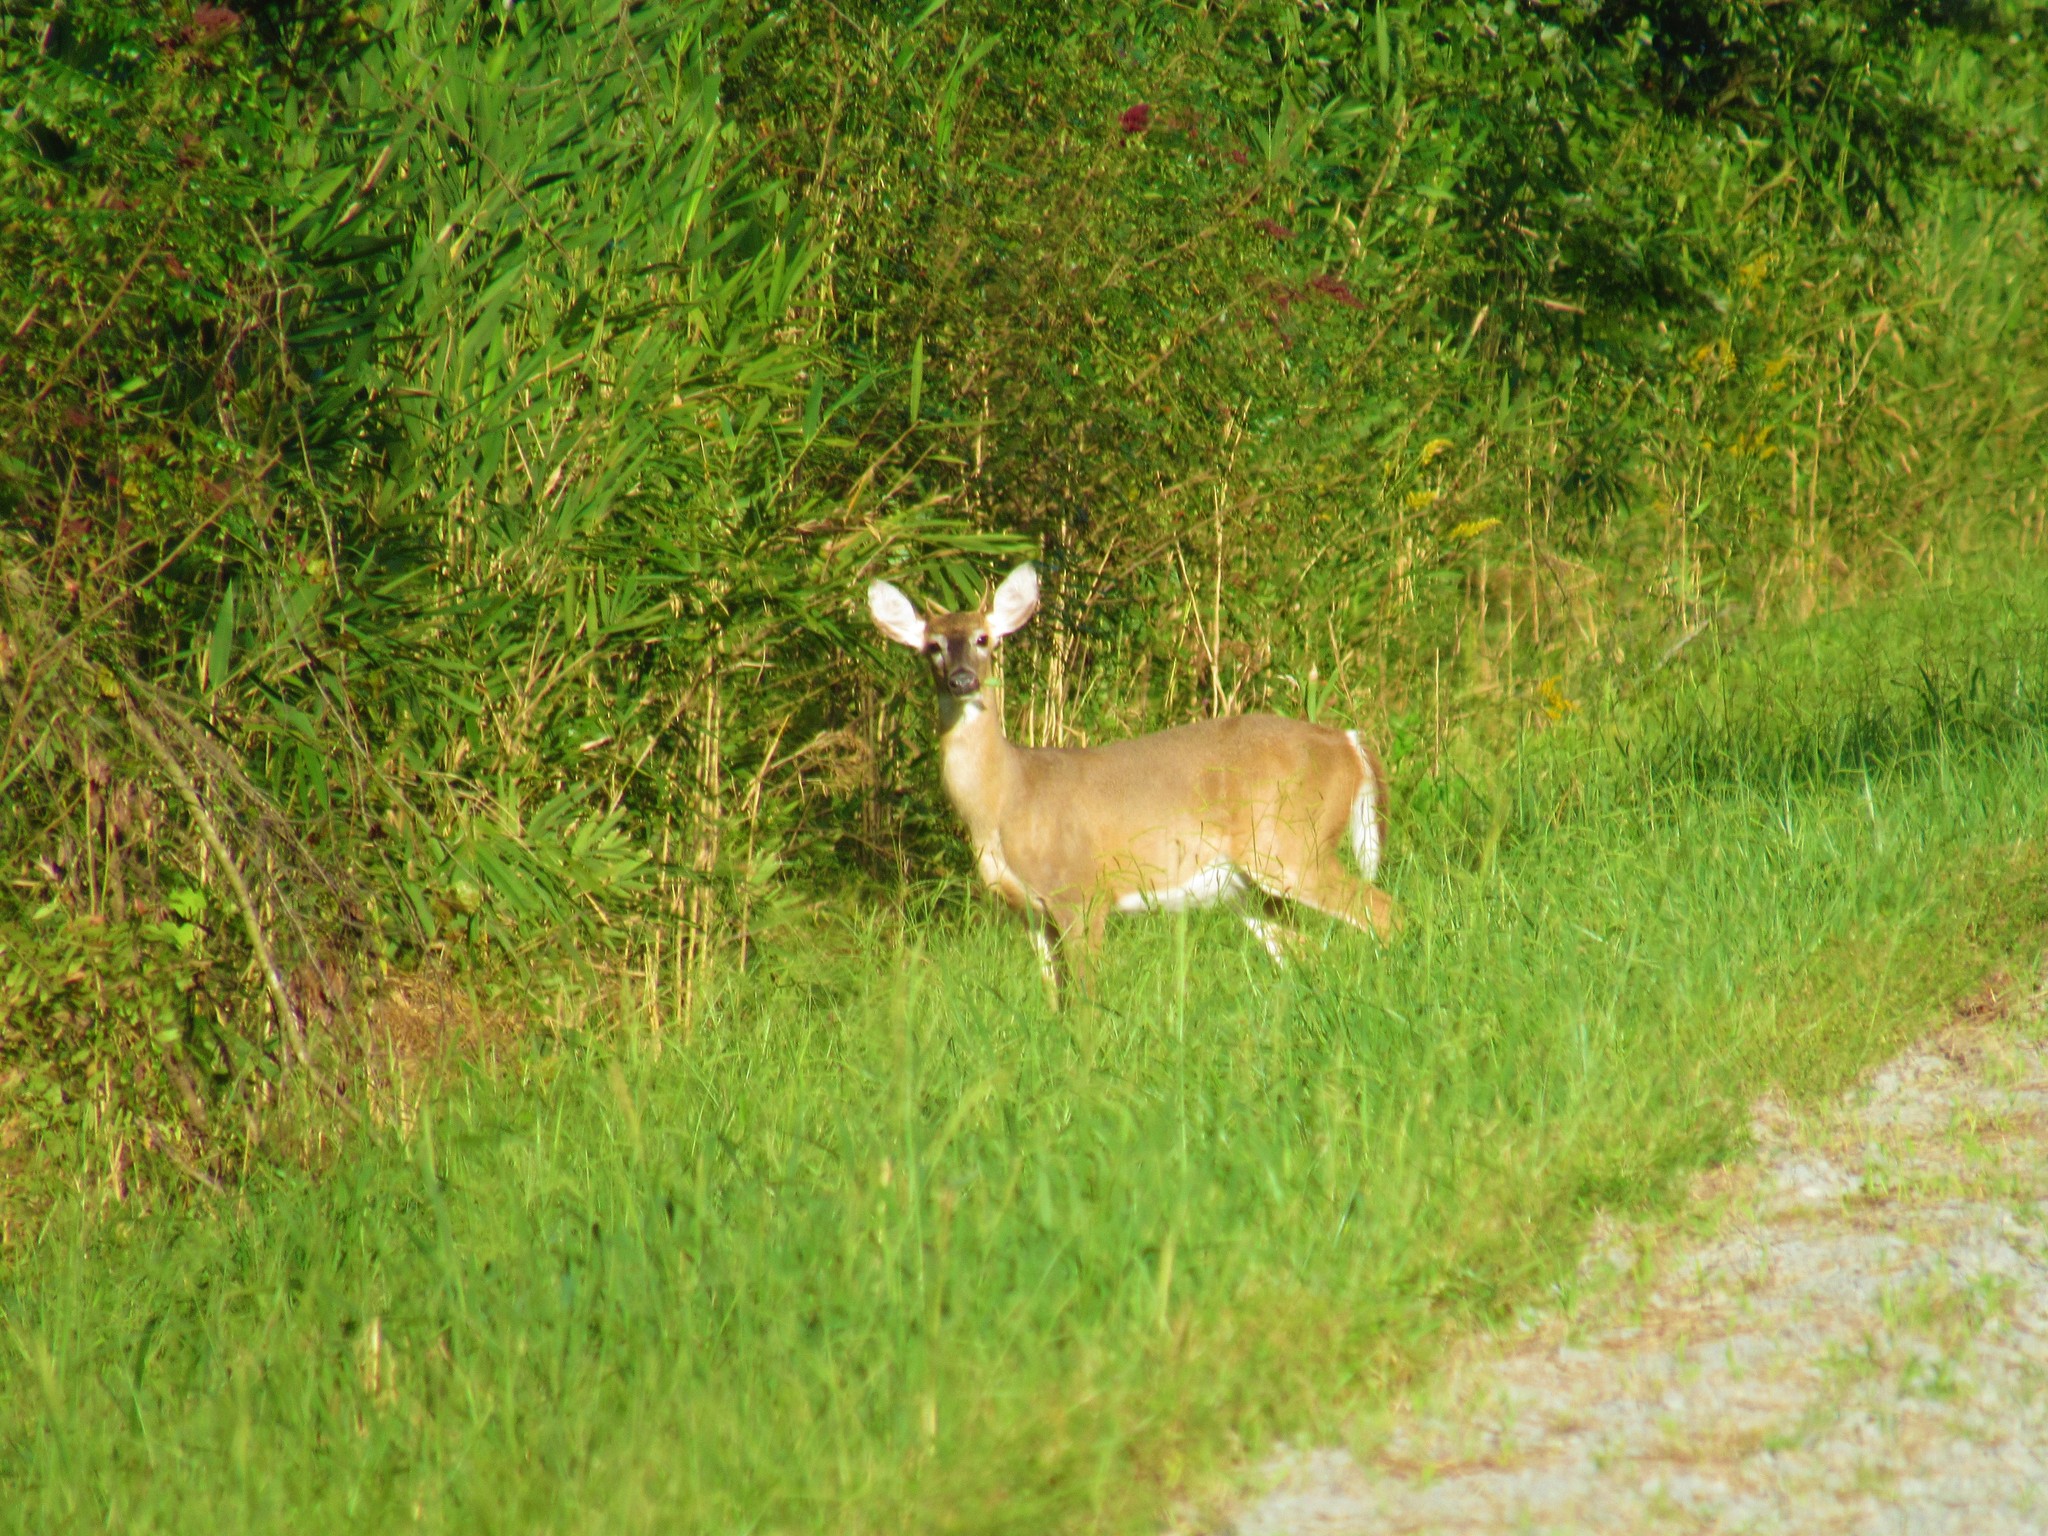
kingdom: Animalia
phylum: Chordata
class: Mammalia
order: Artiodactyla
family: Cervidae
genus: Odocoileus
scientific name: Odocoileus virginianus
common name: White-tailed deer
